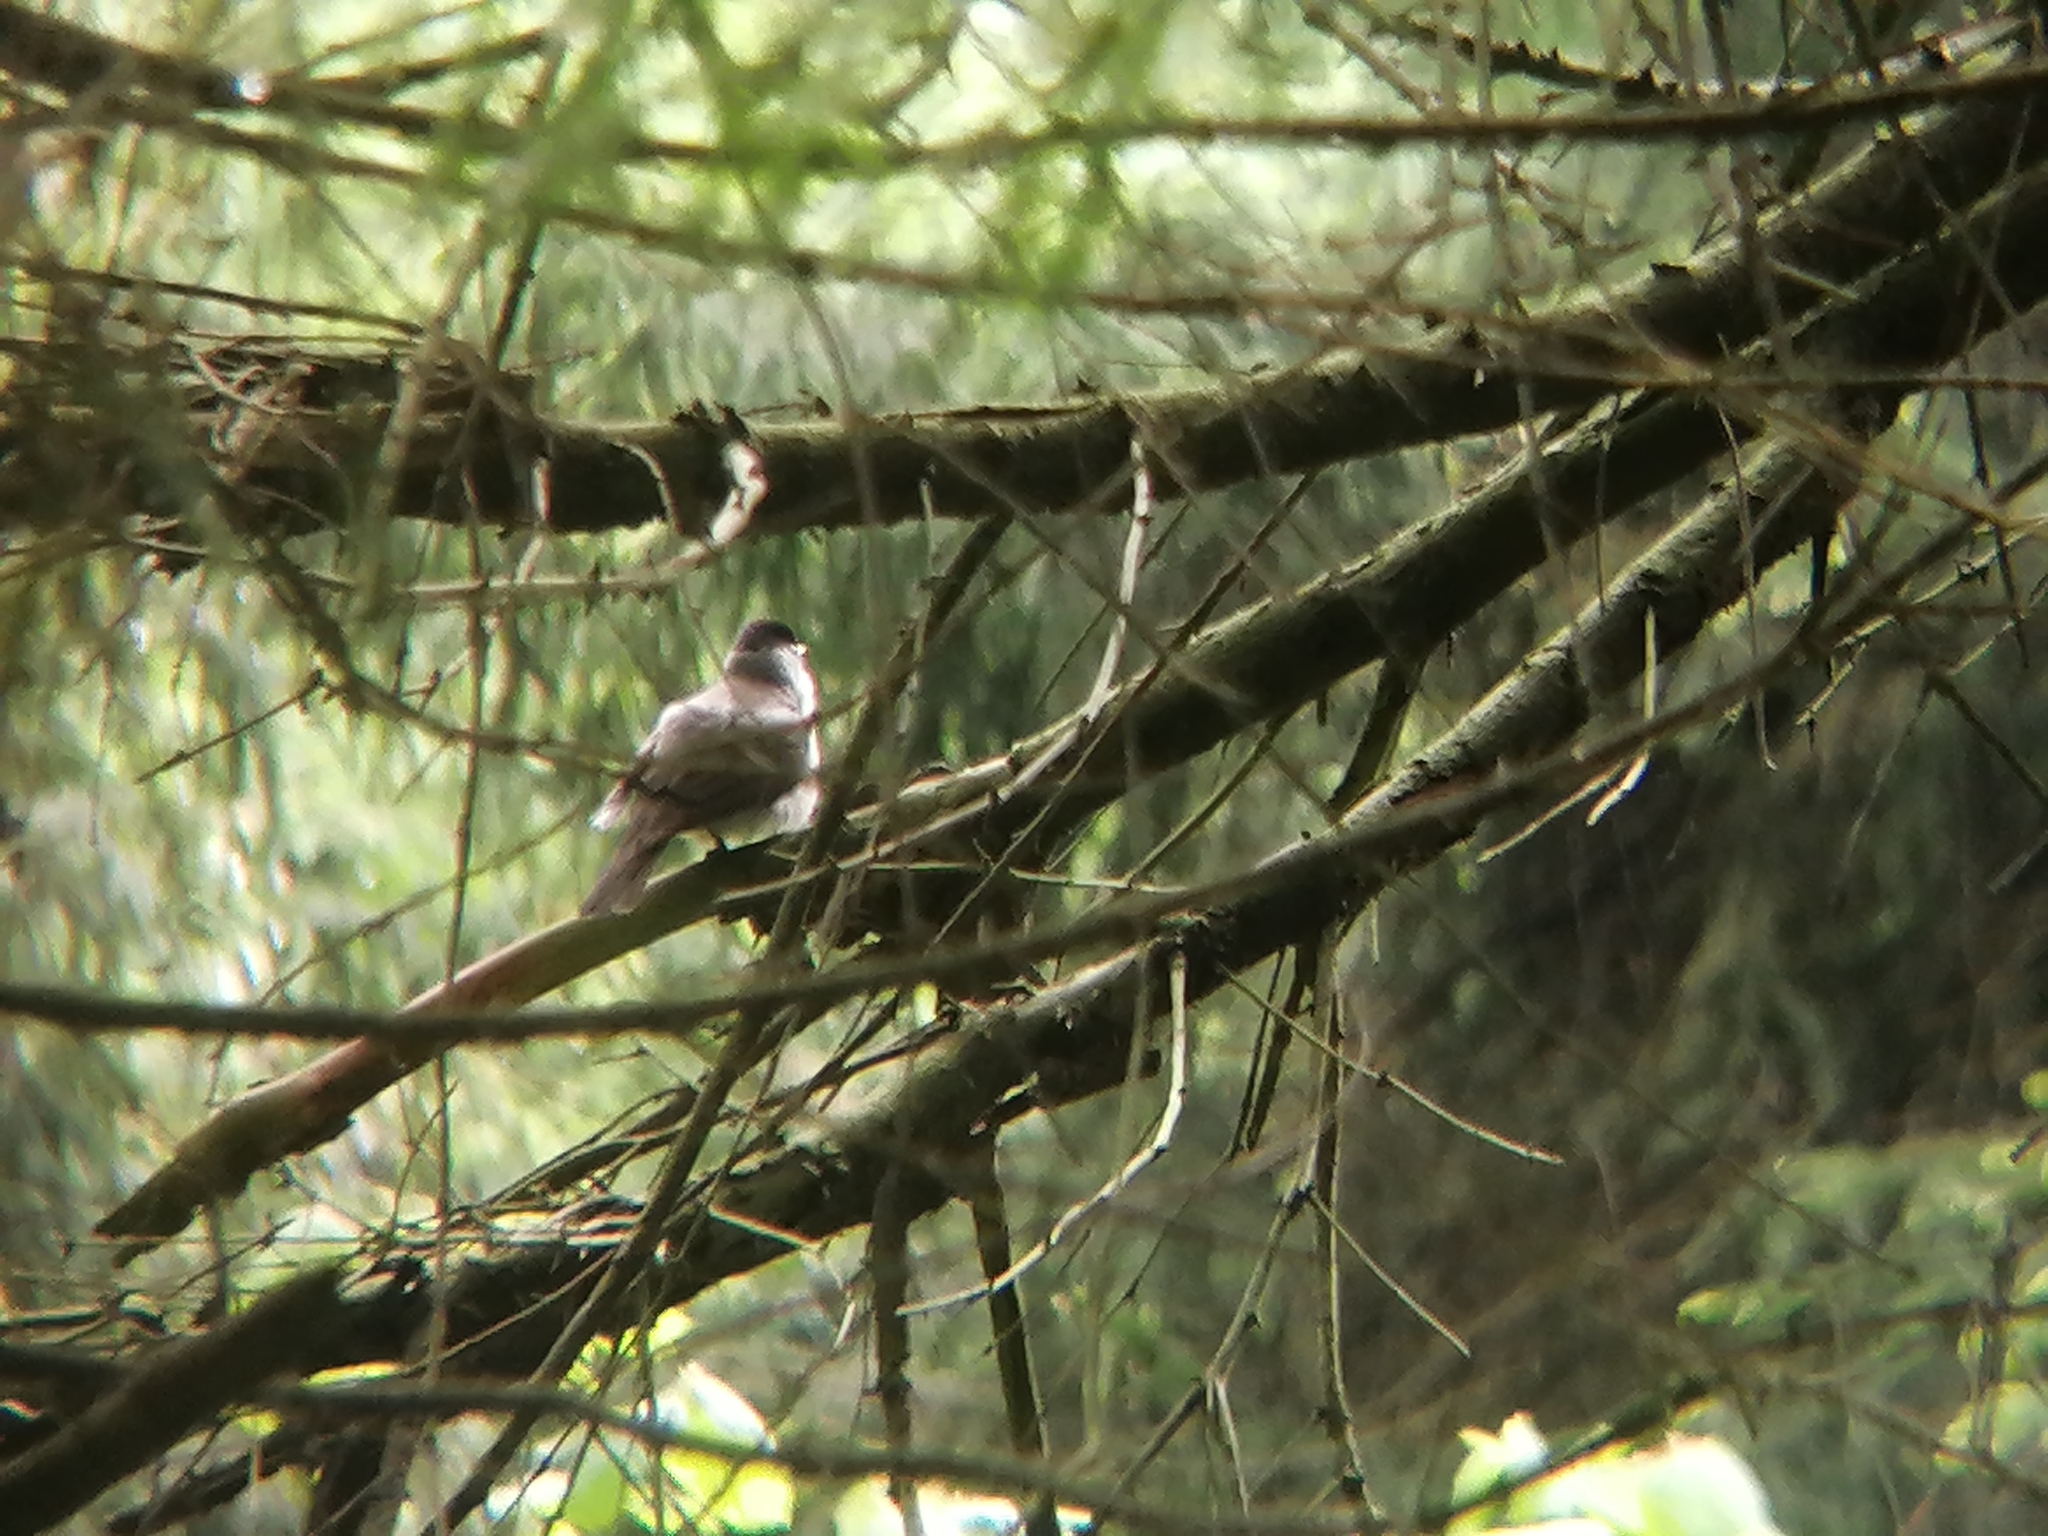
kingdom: Animalia
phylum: Chordata
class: Aves
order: Passeriformes
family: Sylviidae
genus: Sylvia
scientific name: Sylvia atricapilla
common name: Eurasian blackcap
